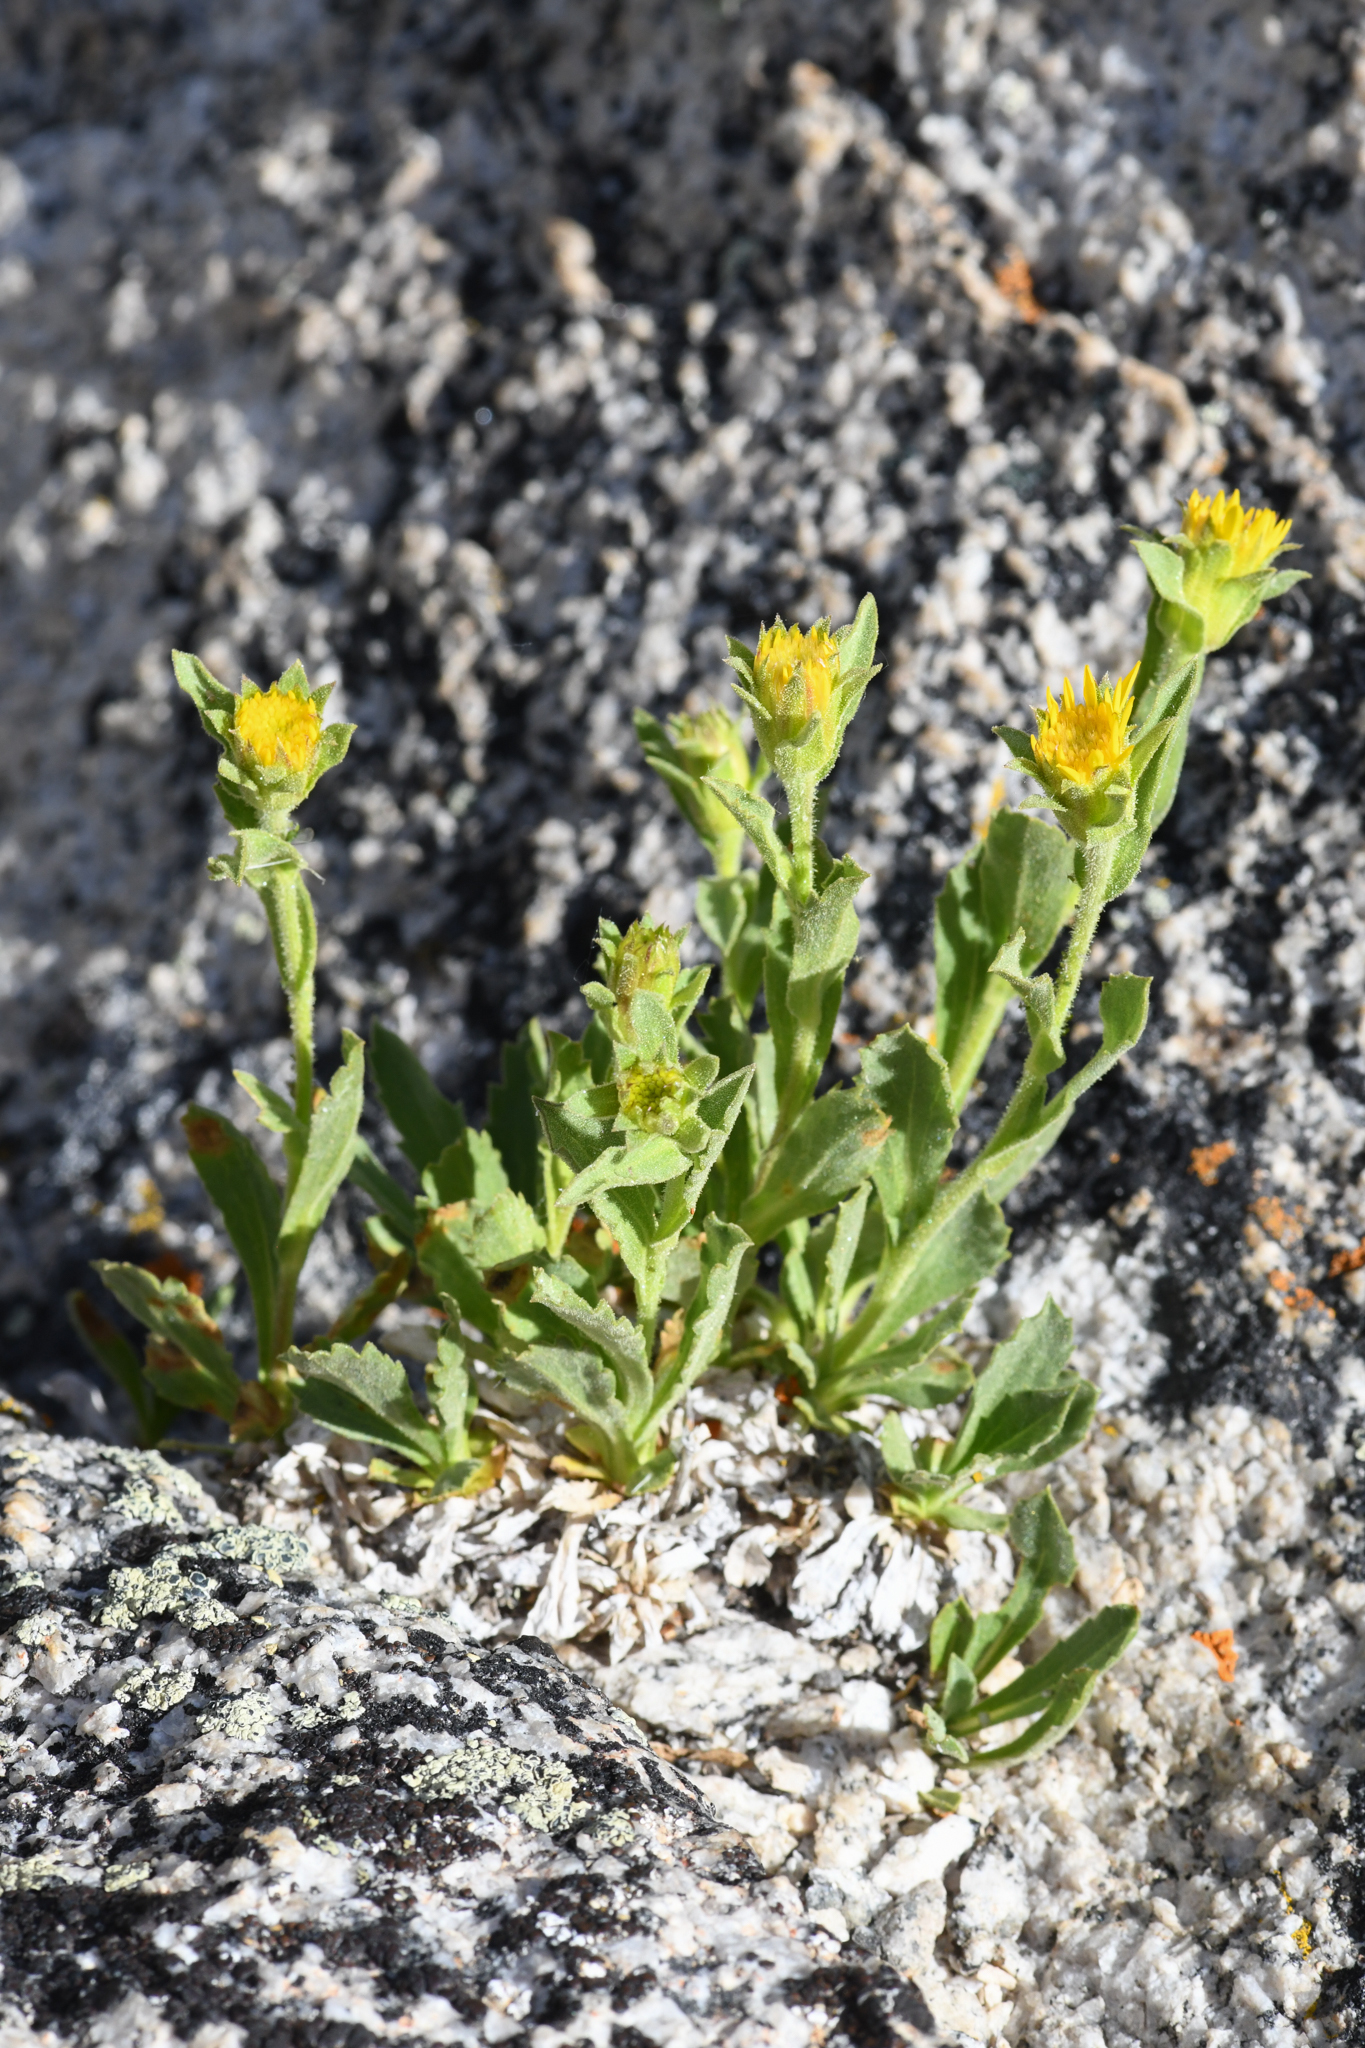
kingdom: Plantae
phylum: Tracheophyta
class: Magnoliopsida
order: Asterales
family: Asteraceae
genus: Toiyabea
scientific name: Toiyabea peirsonii
